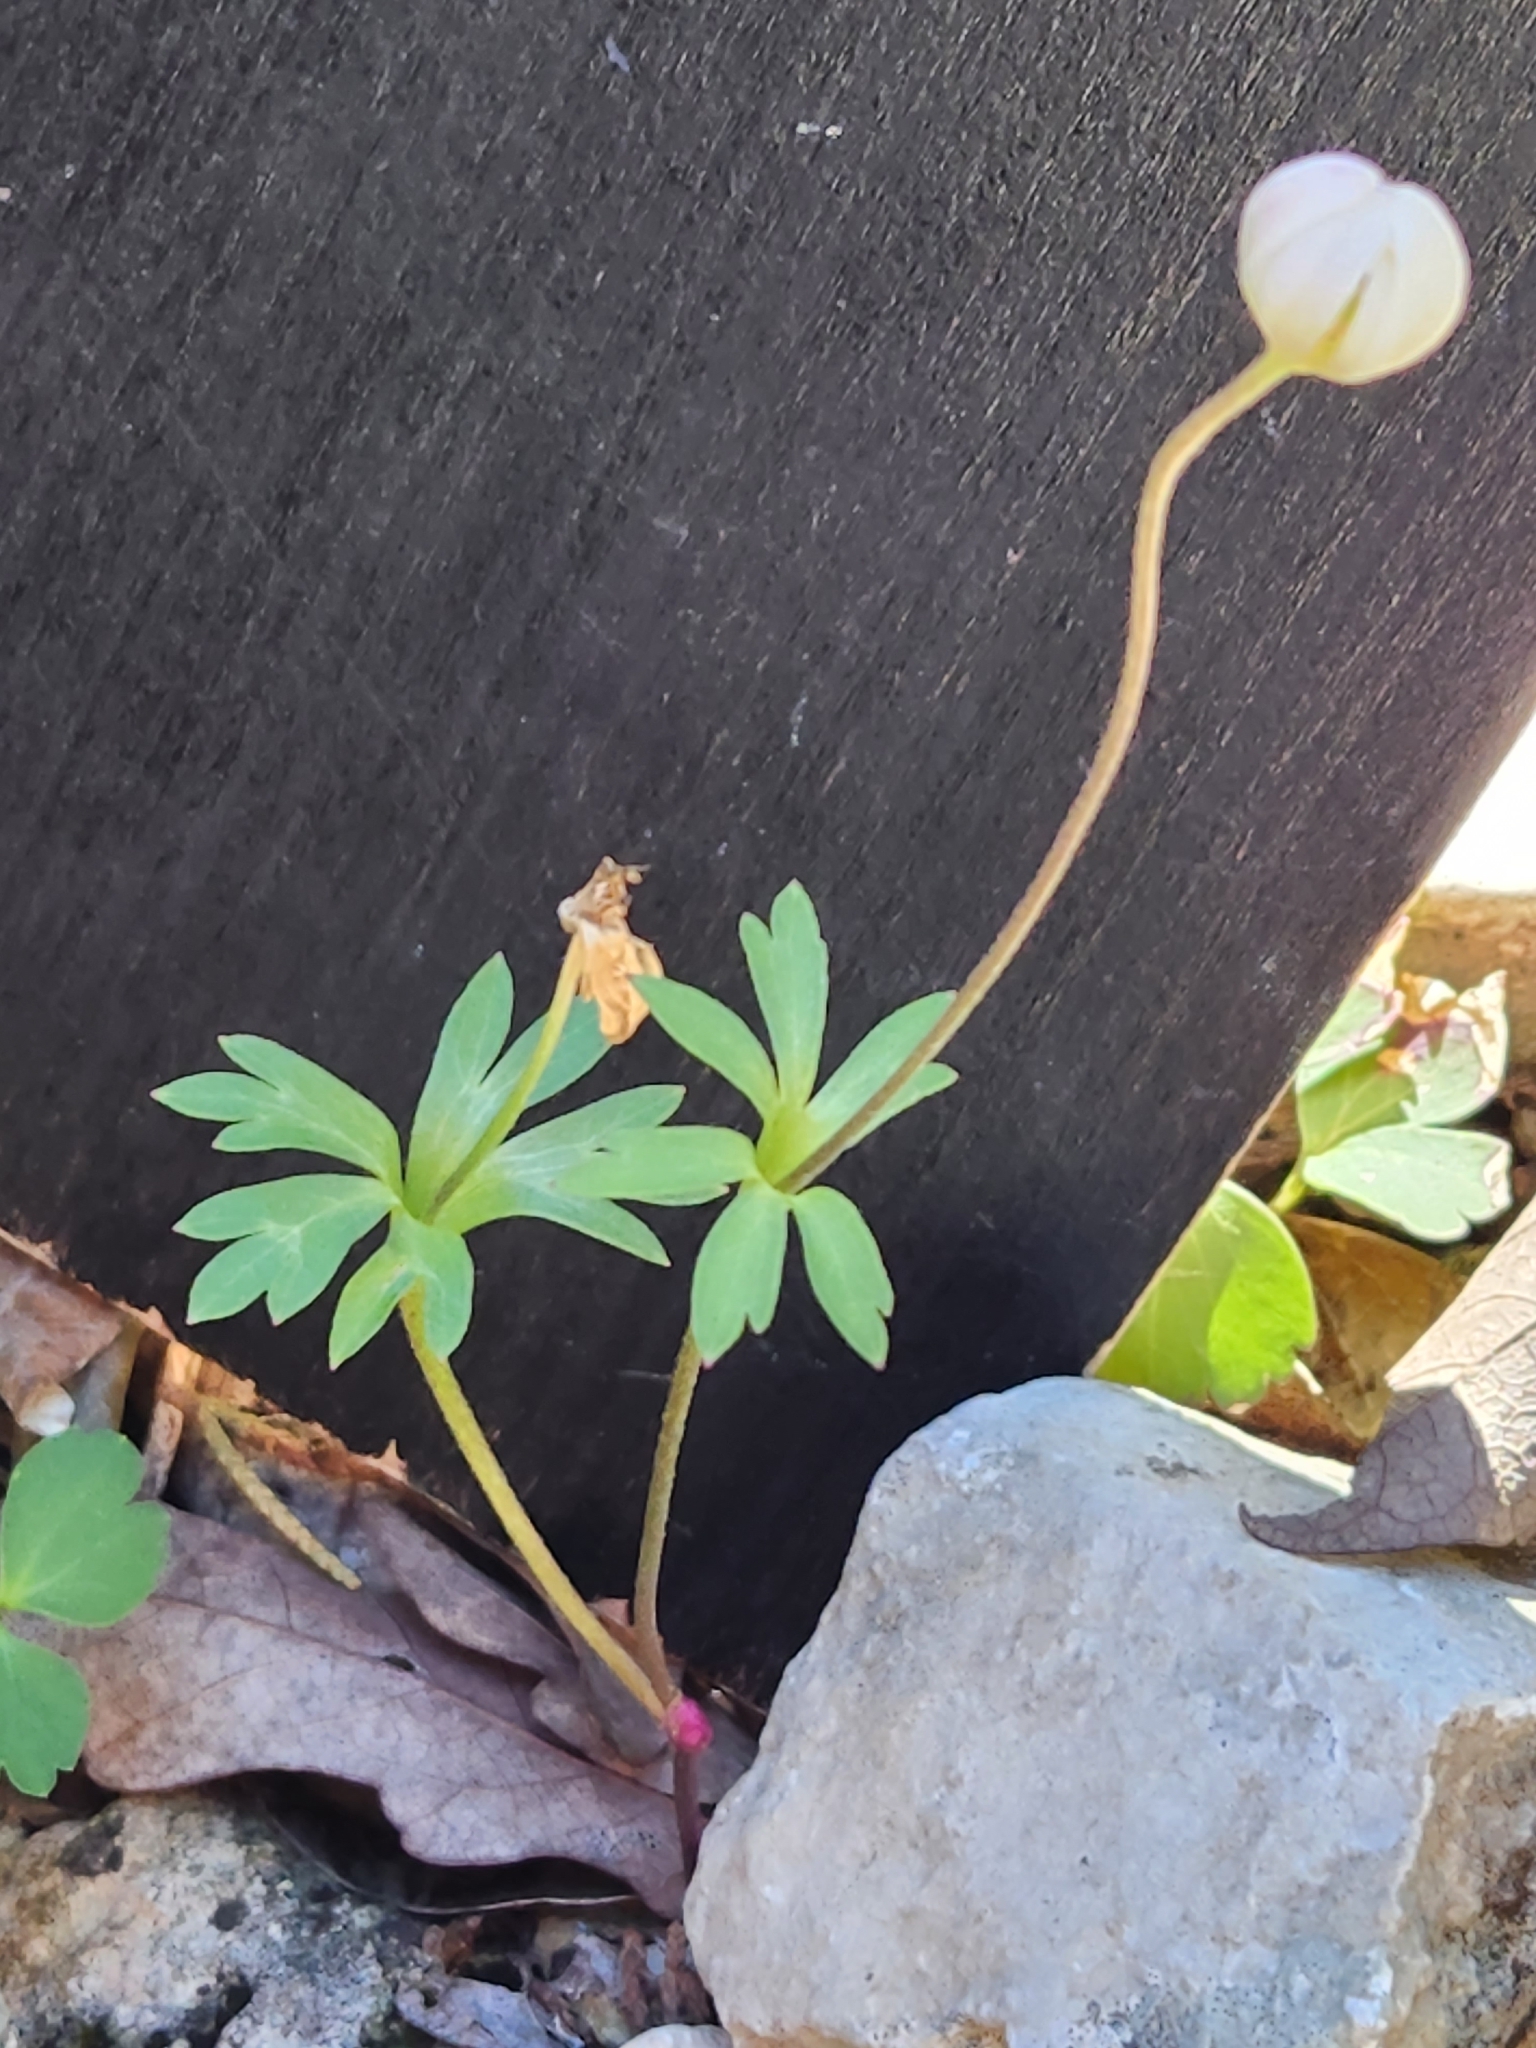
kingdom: Plantae
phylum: Tracheophyta
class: Magnoliopsida
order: Ranunculales
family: Ranunculaceae
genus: Anemone
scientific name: Anemone edwardsiana
